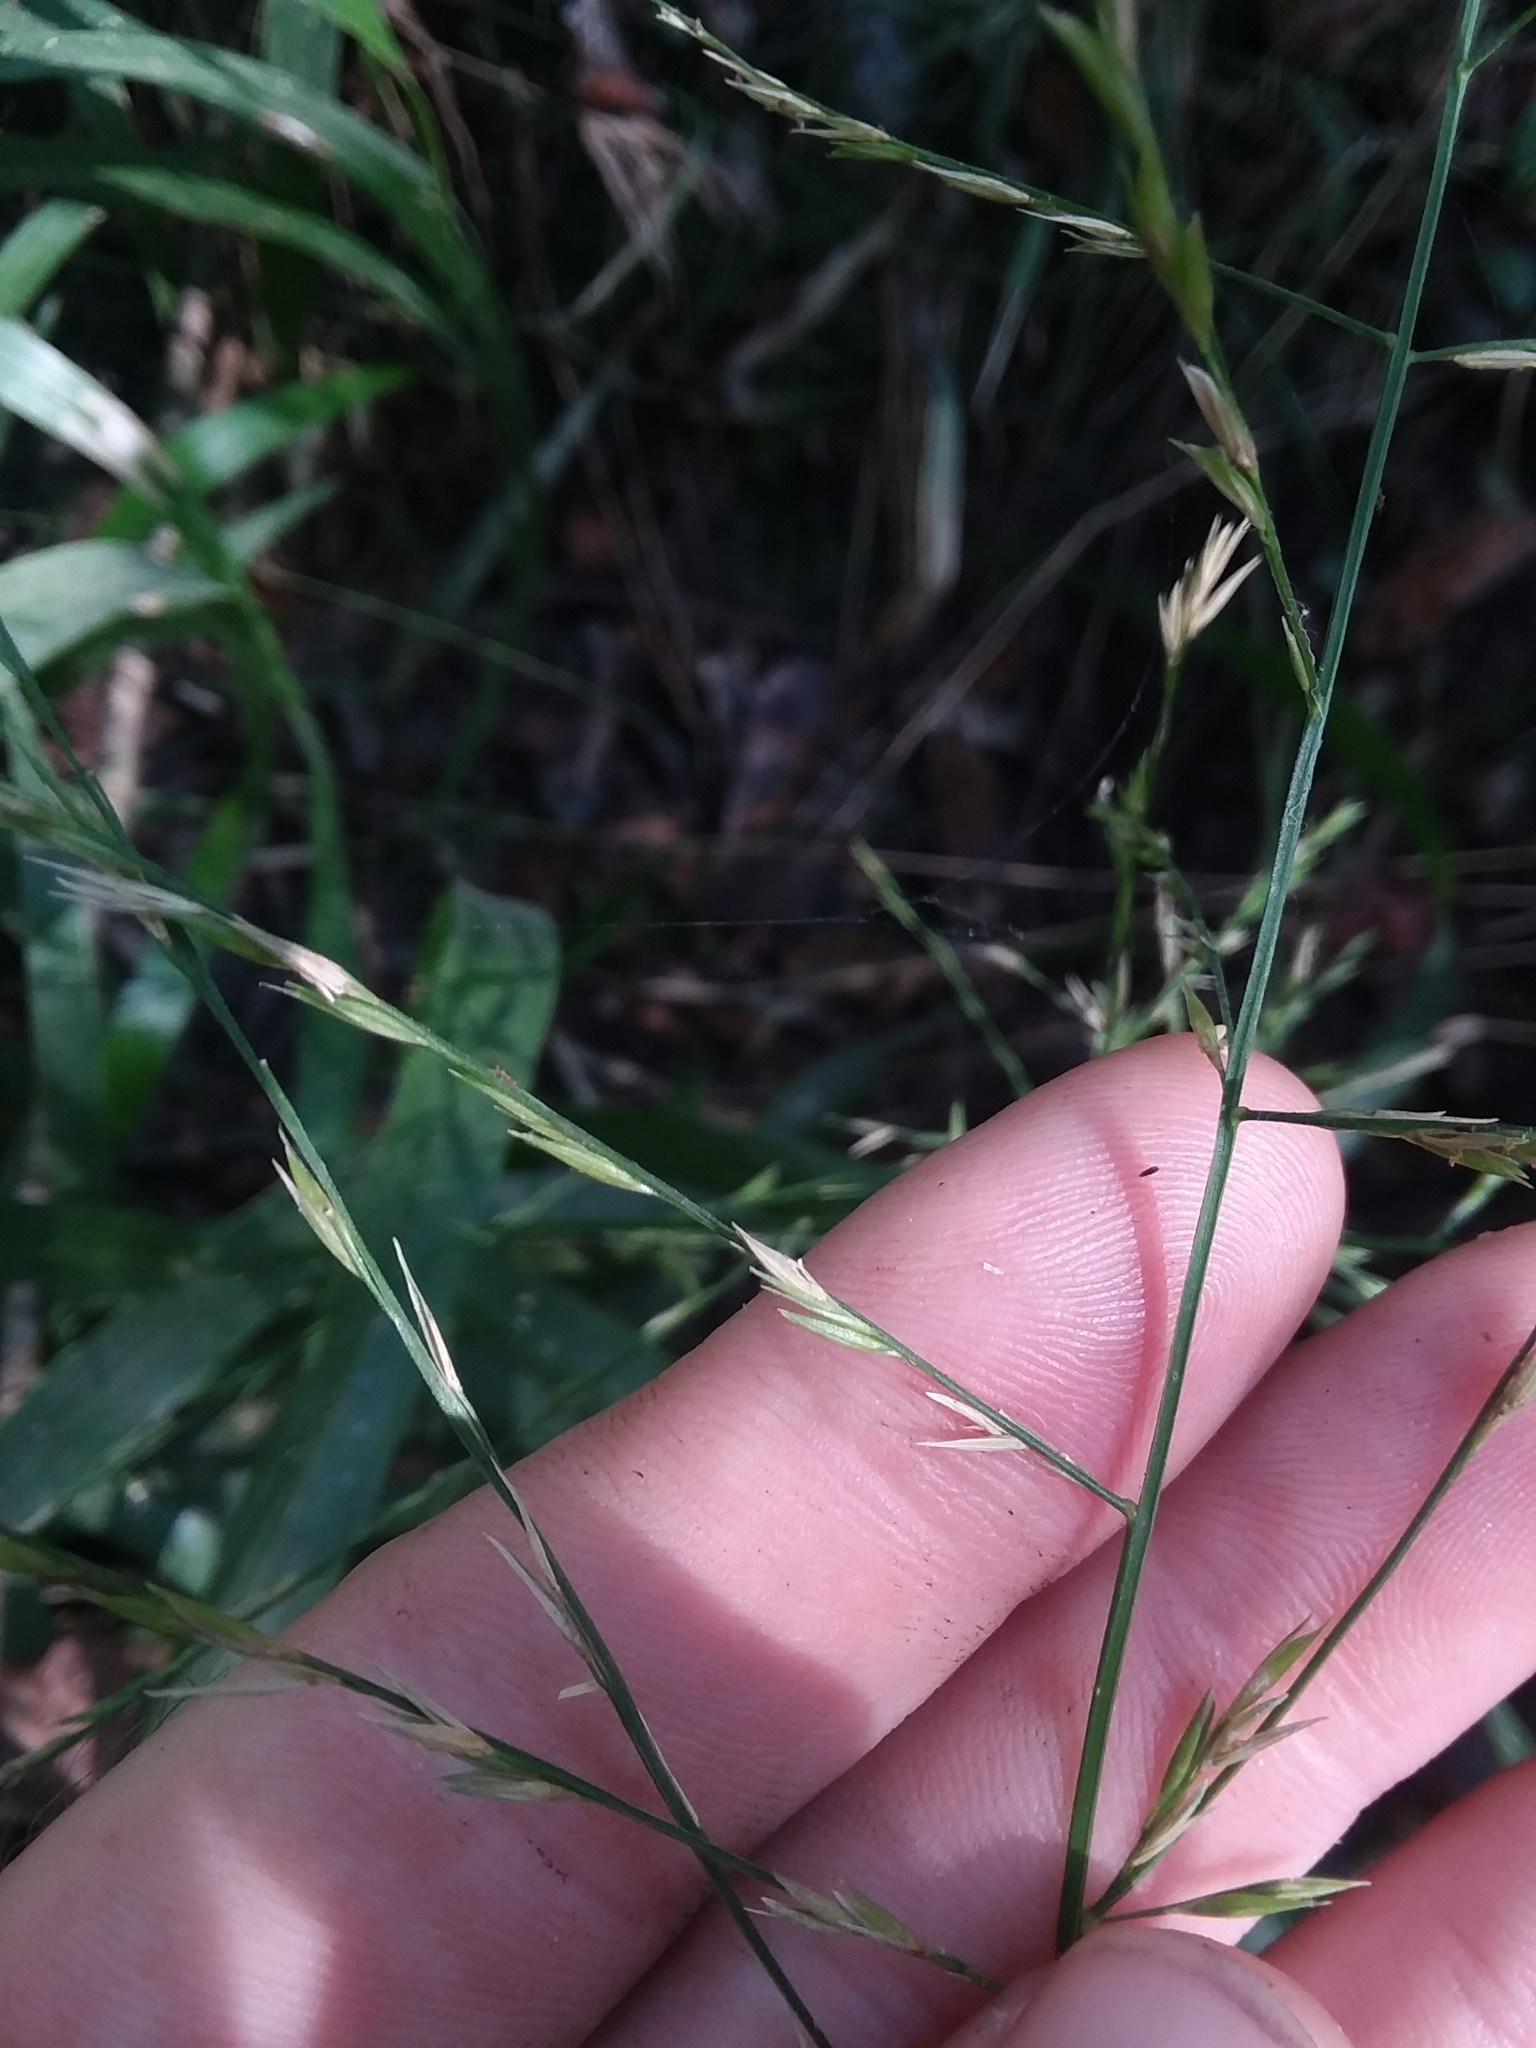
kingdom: Plantae
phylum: Tracheophyta
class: Liliopsida
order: Poales
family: Poaceae
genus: Panicum
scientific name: Panicum gymnocarpon
